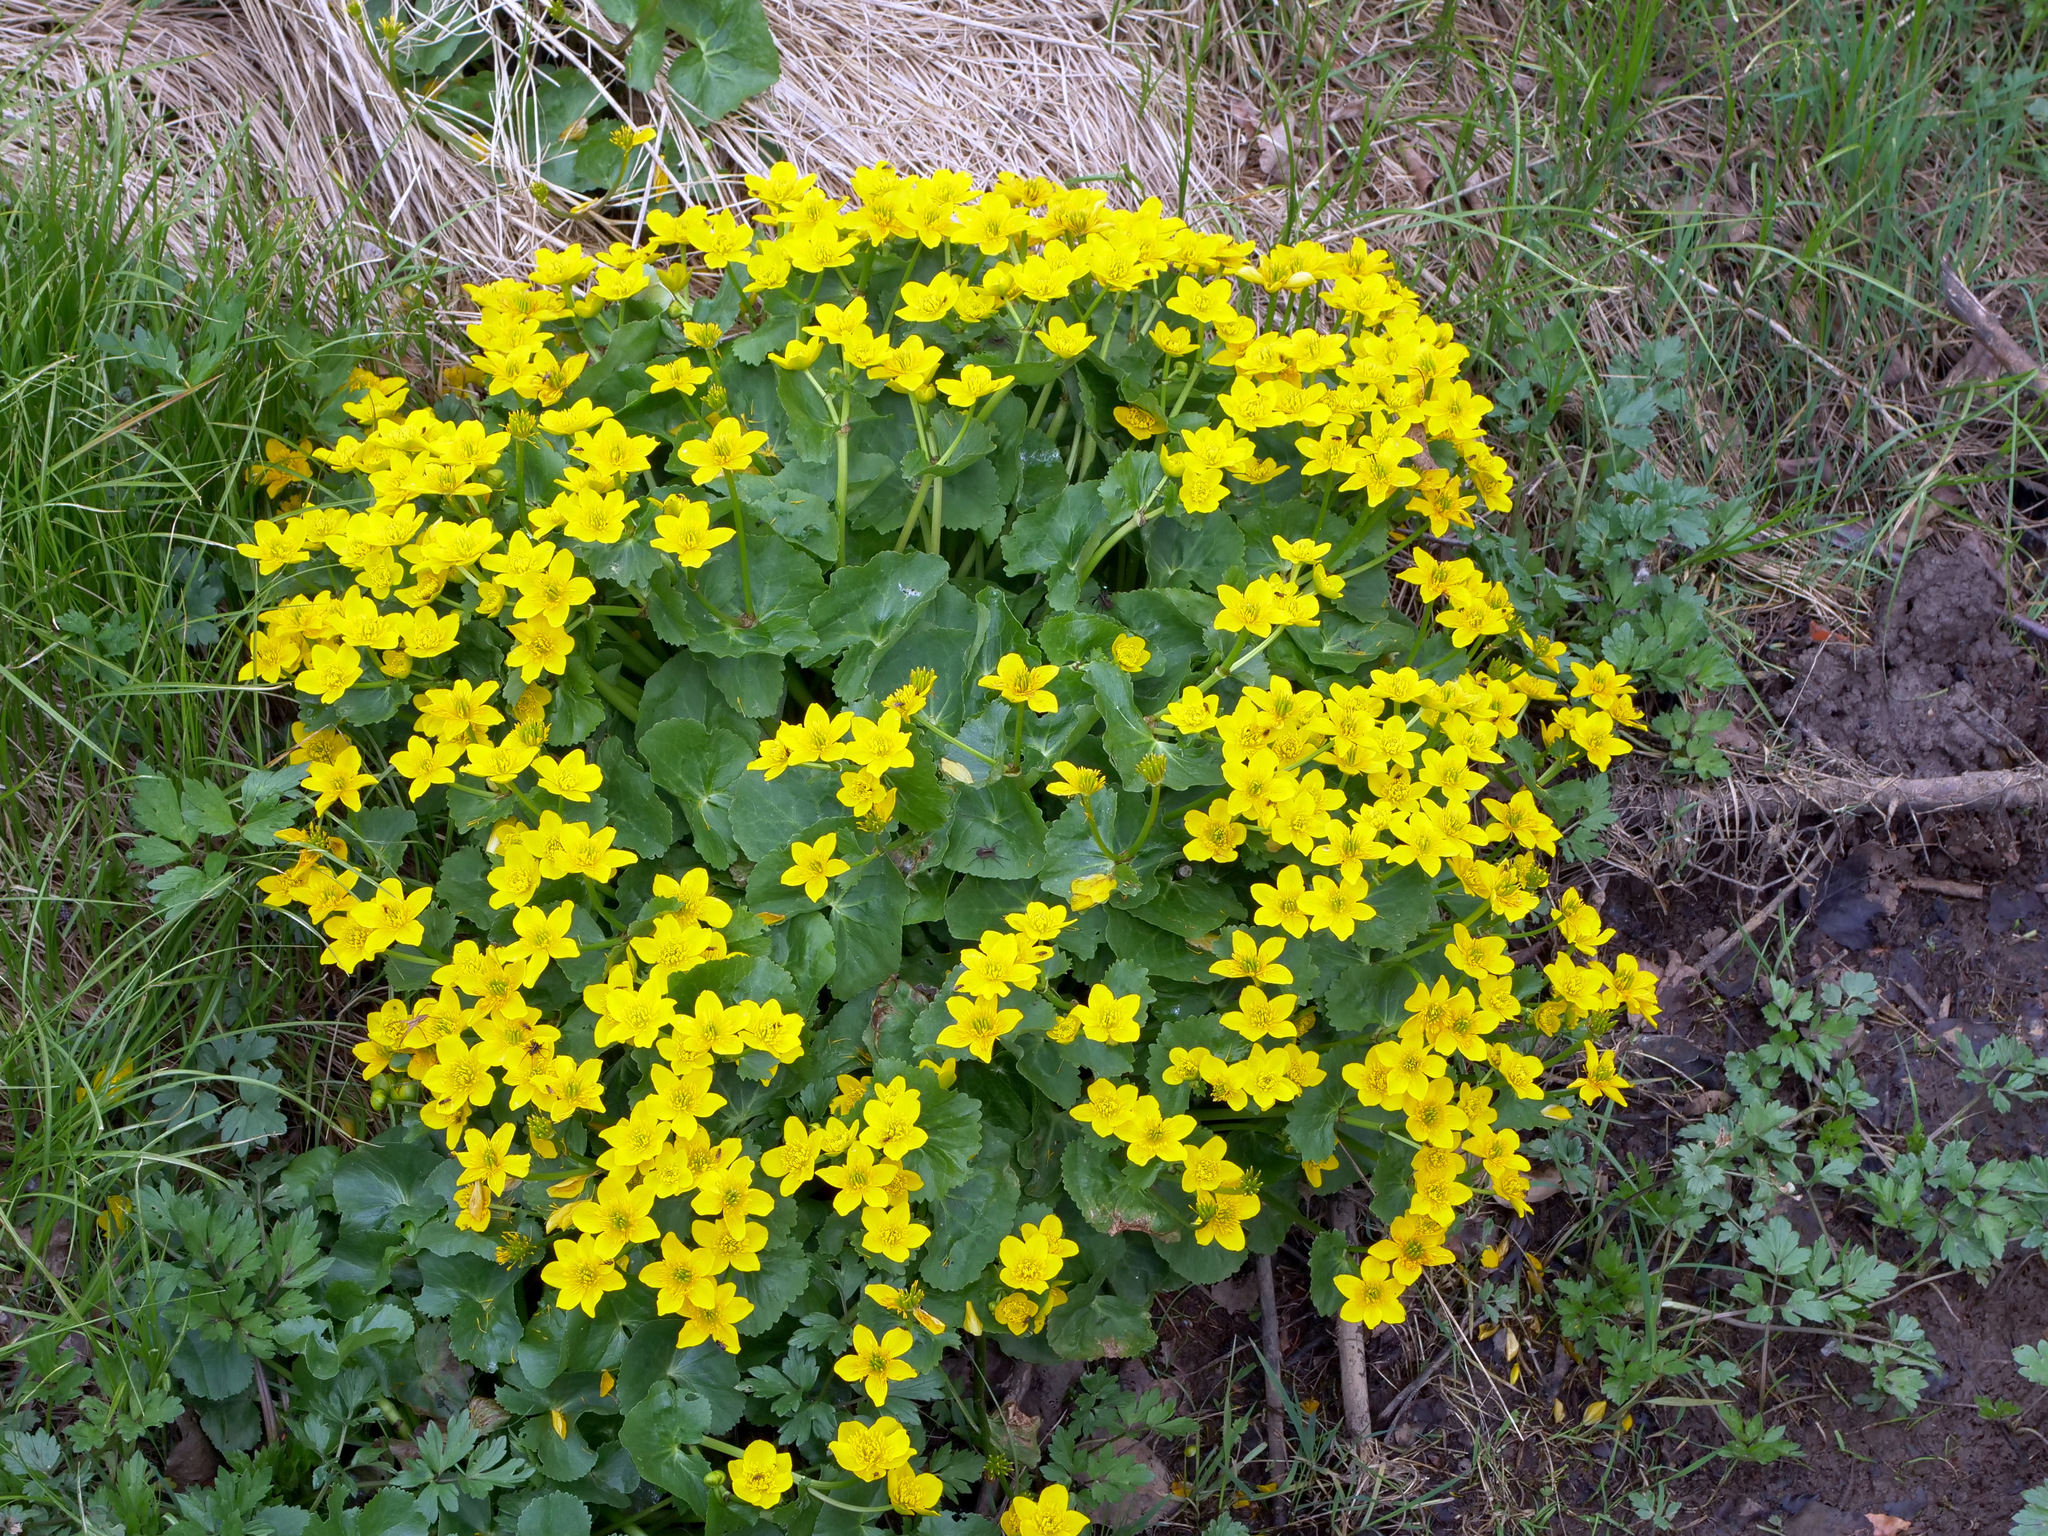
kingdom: Plantae
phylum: Tracheophyta
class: Magnoliopsida
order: Ranunculales
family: Ranunculaceae
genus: Caltha
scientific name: Caltha palustris
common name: Marsh marigold
